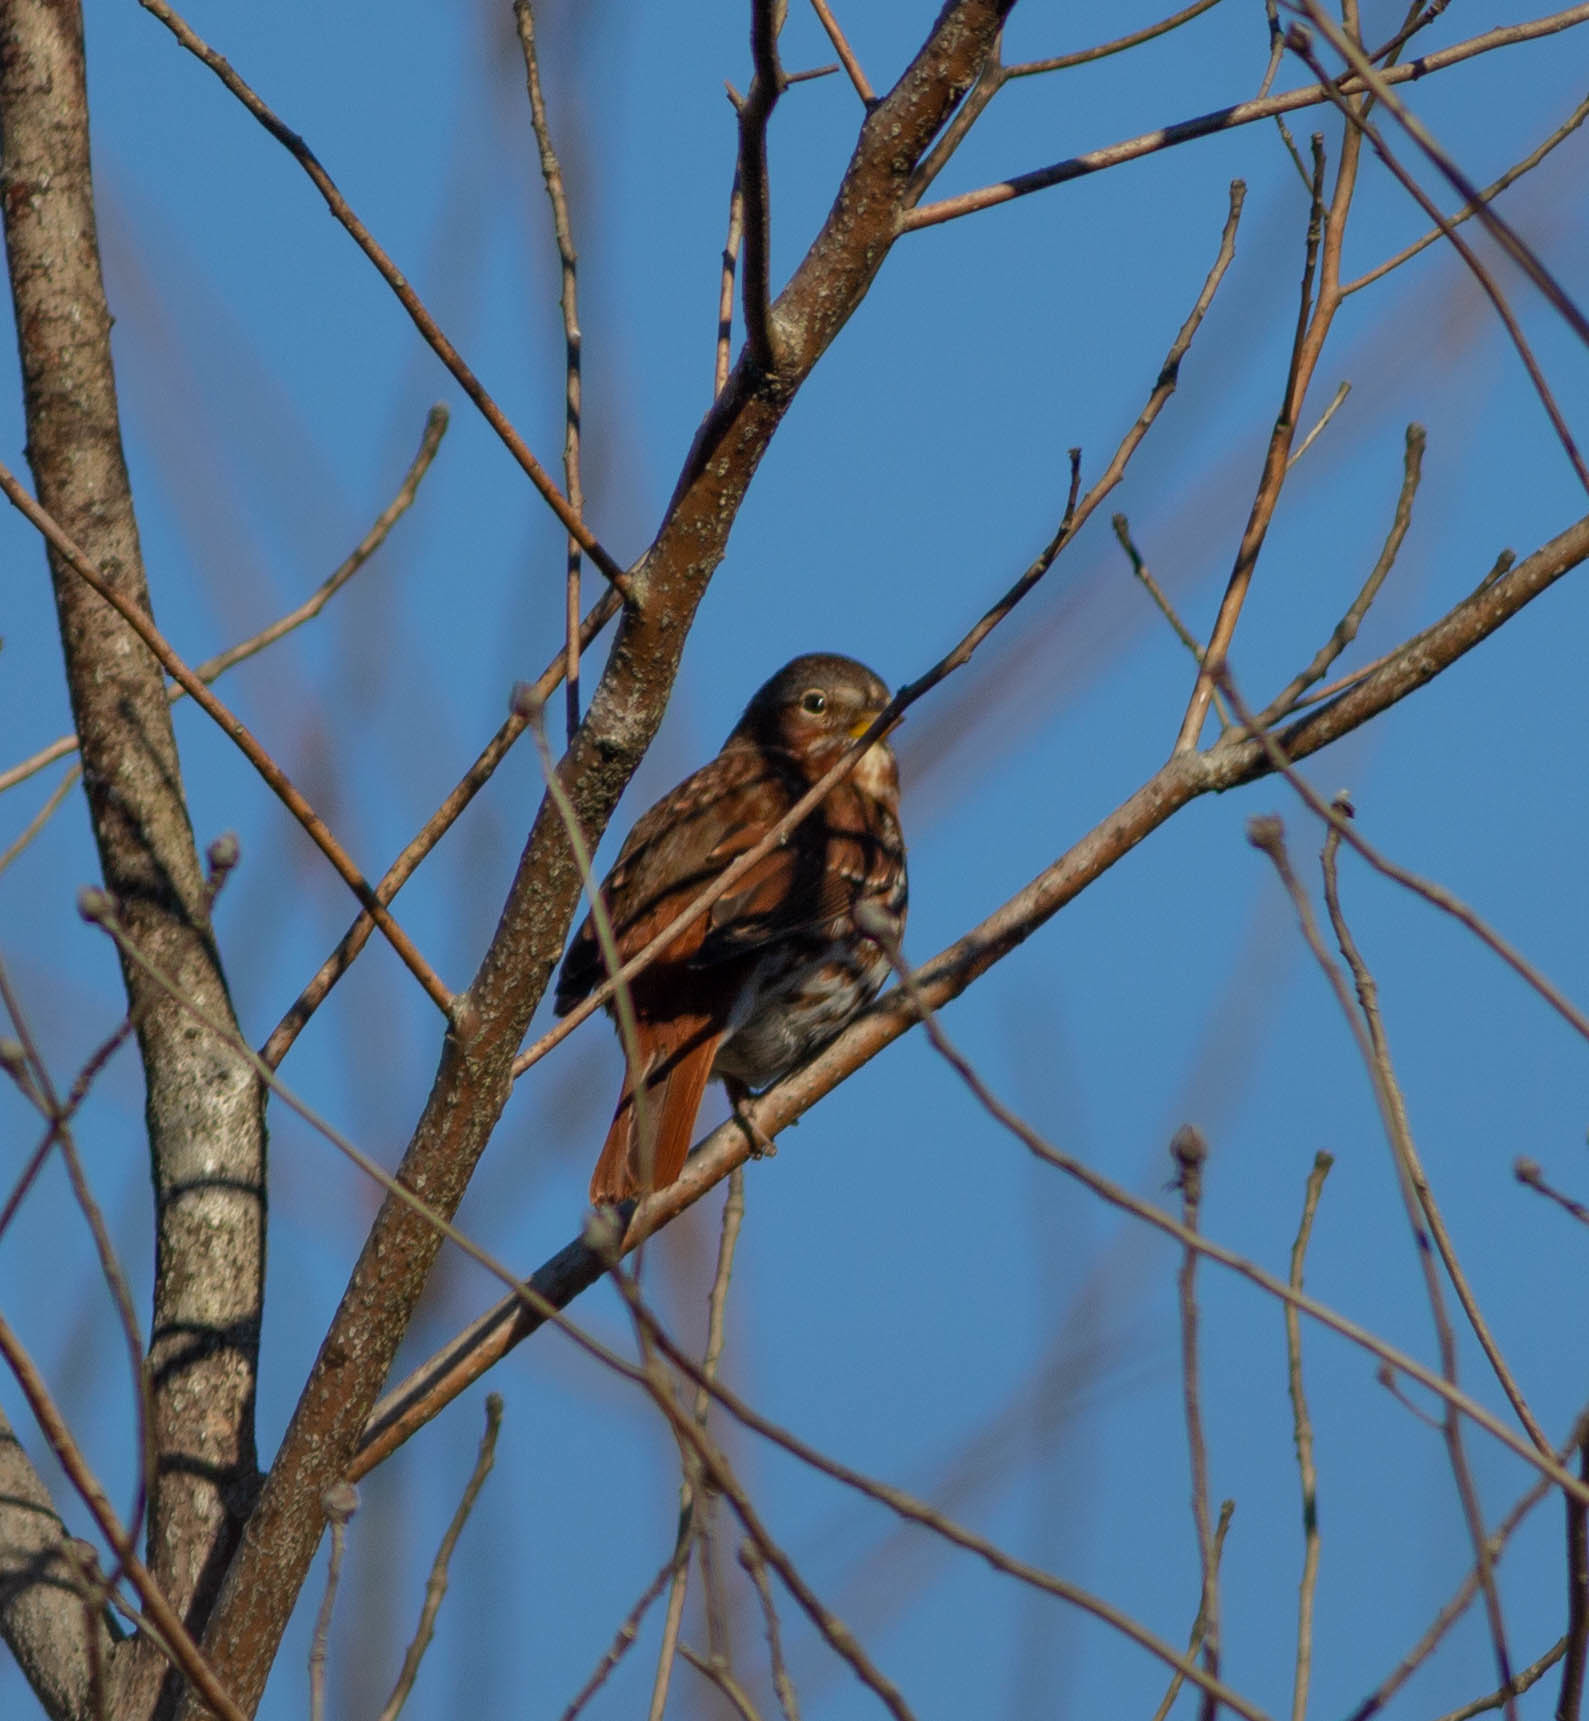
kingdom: Animalia
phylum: Chordata
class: Aves
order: Passeriformes
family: Passerellidae
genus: Passerella
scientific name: Passerella iliaca
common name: Fox sparrow
